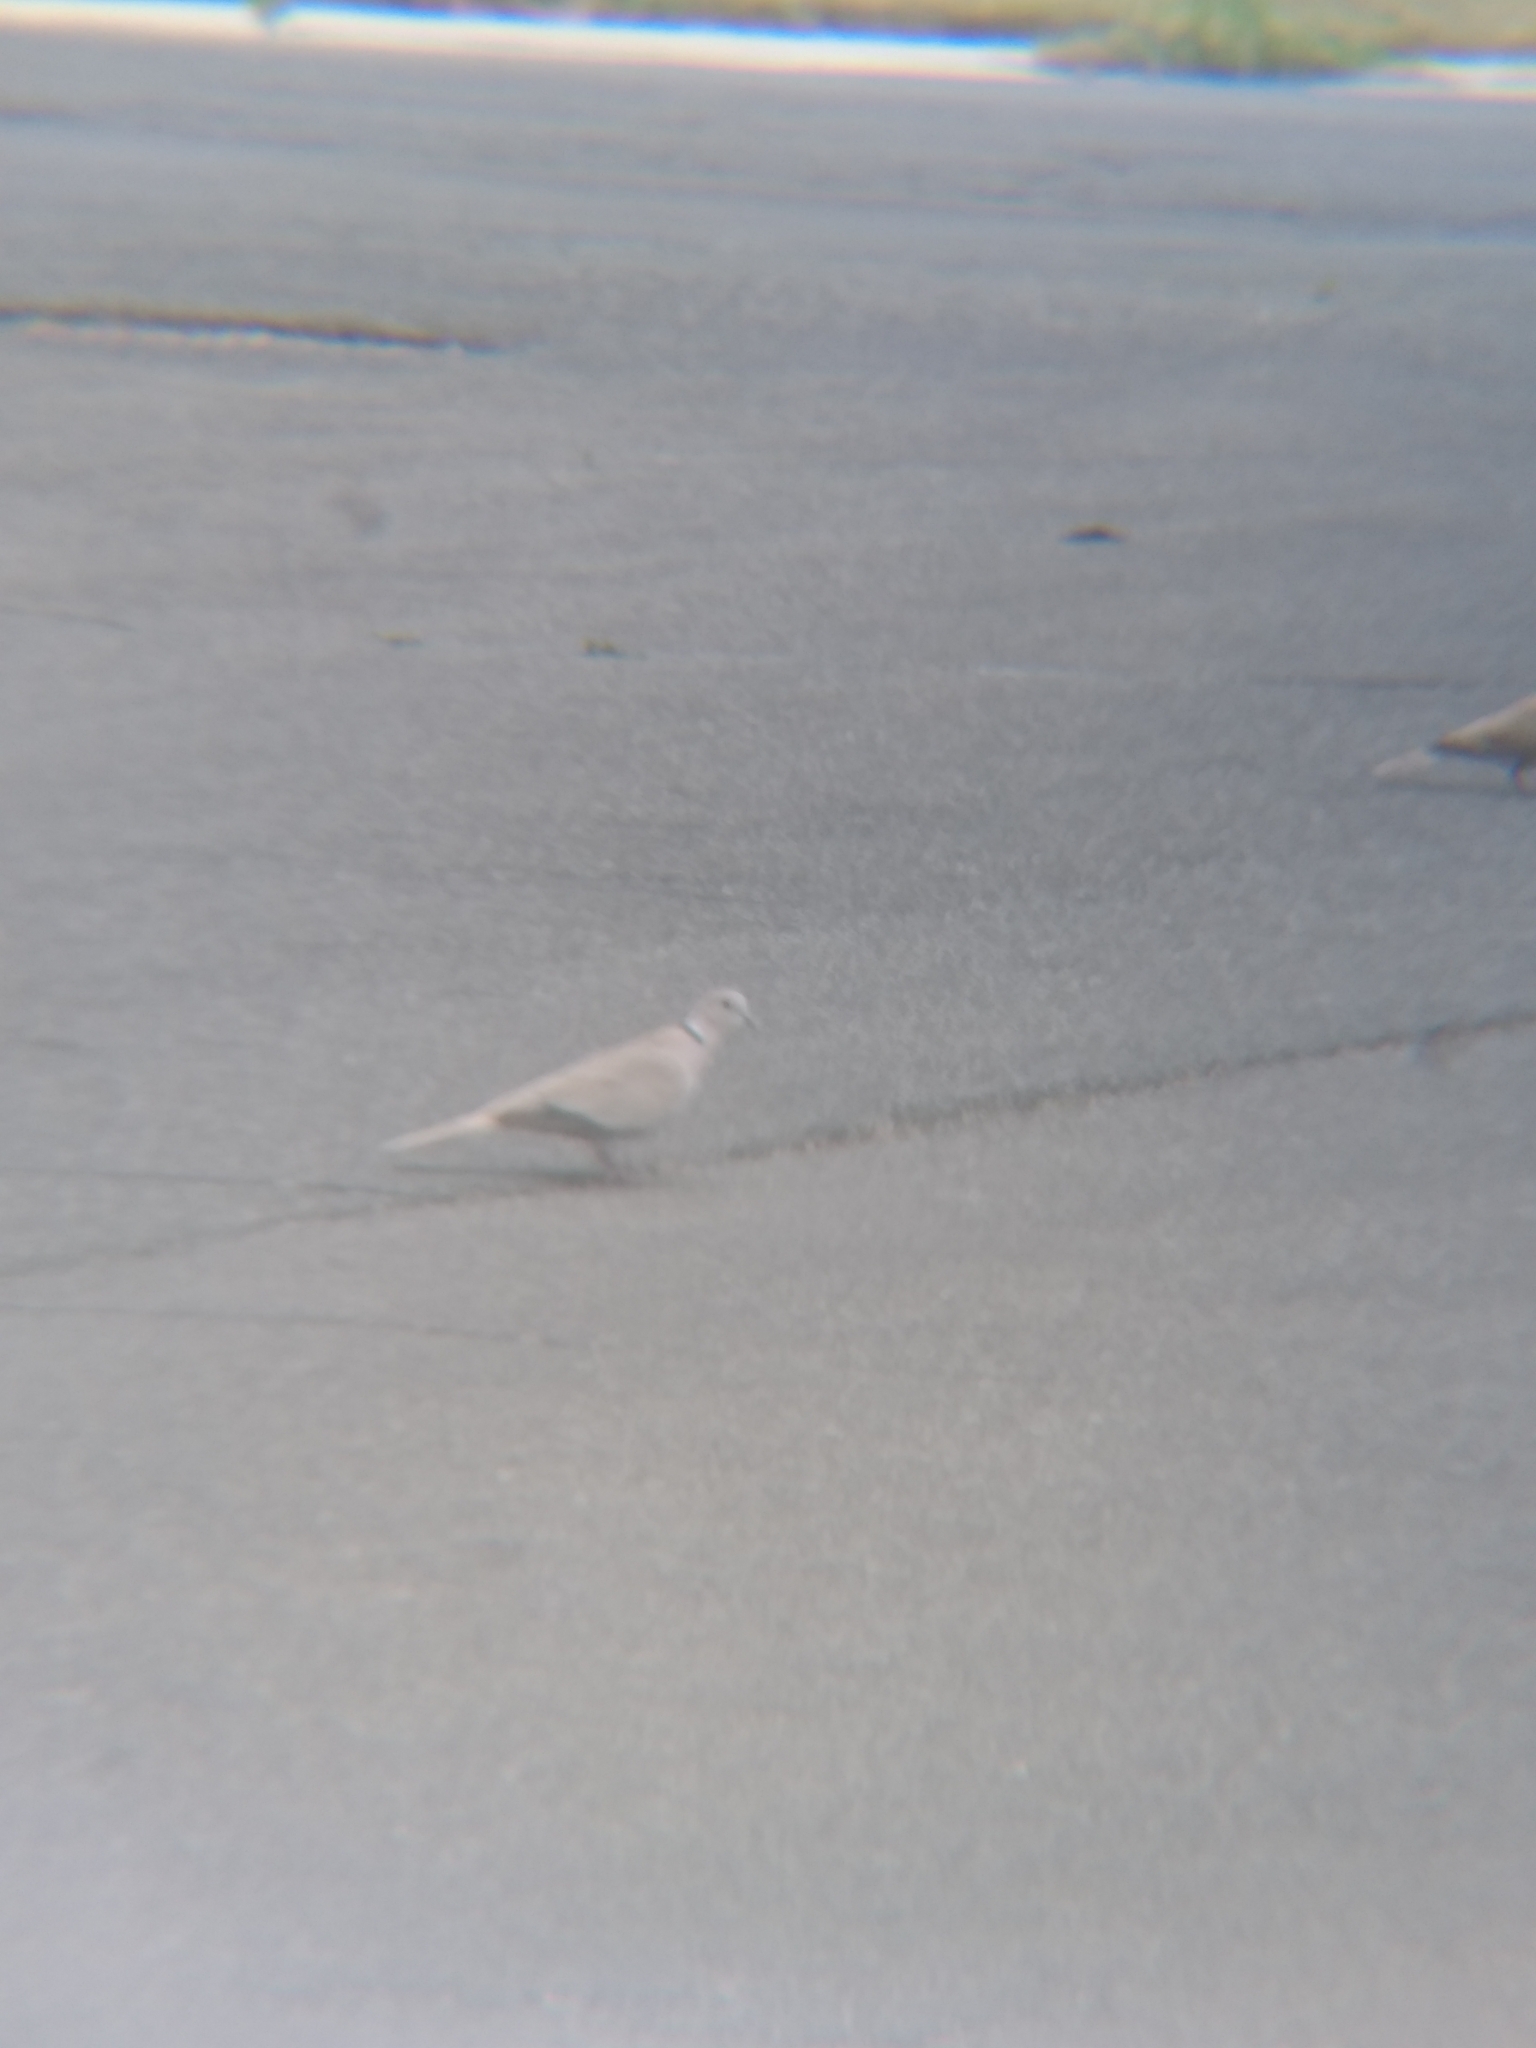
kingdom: Animalia
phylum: Chordata
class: Aves
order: Columbiformes
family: Columbidae
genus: Streptopelia
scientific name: Streptopelia decaocto
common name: Eurasian collared dove
